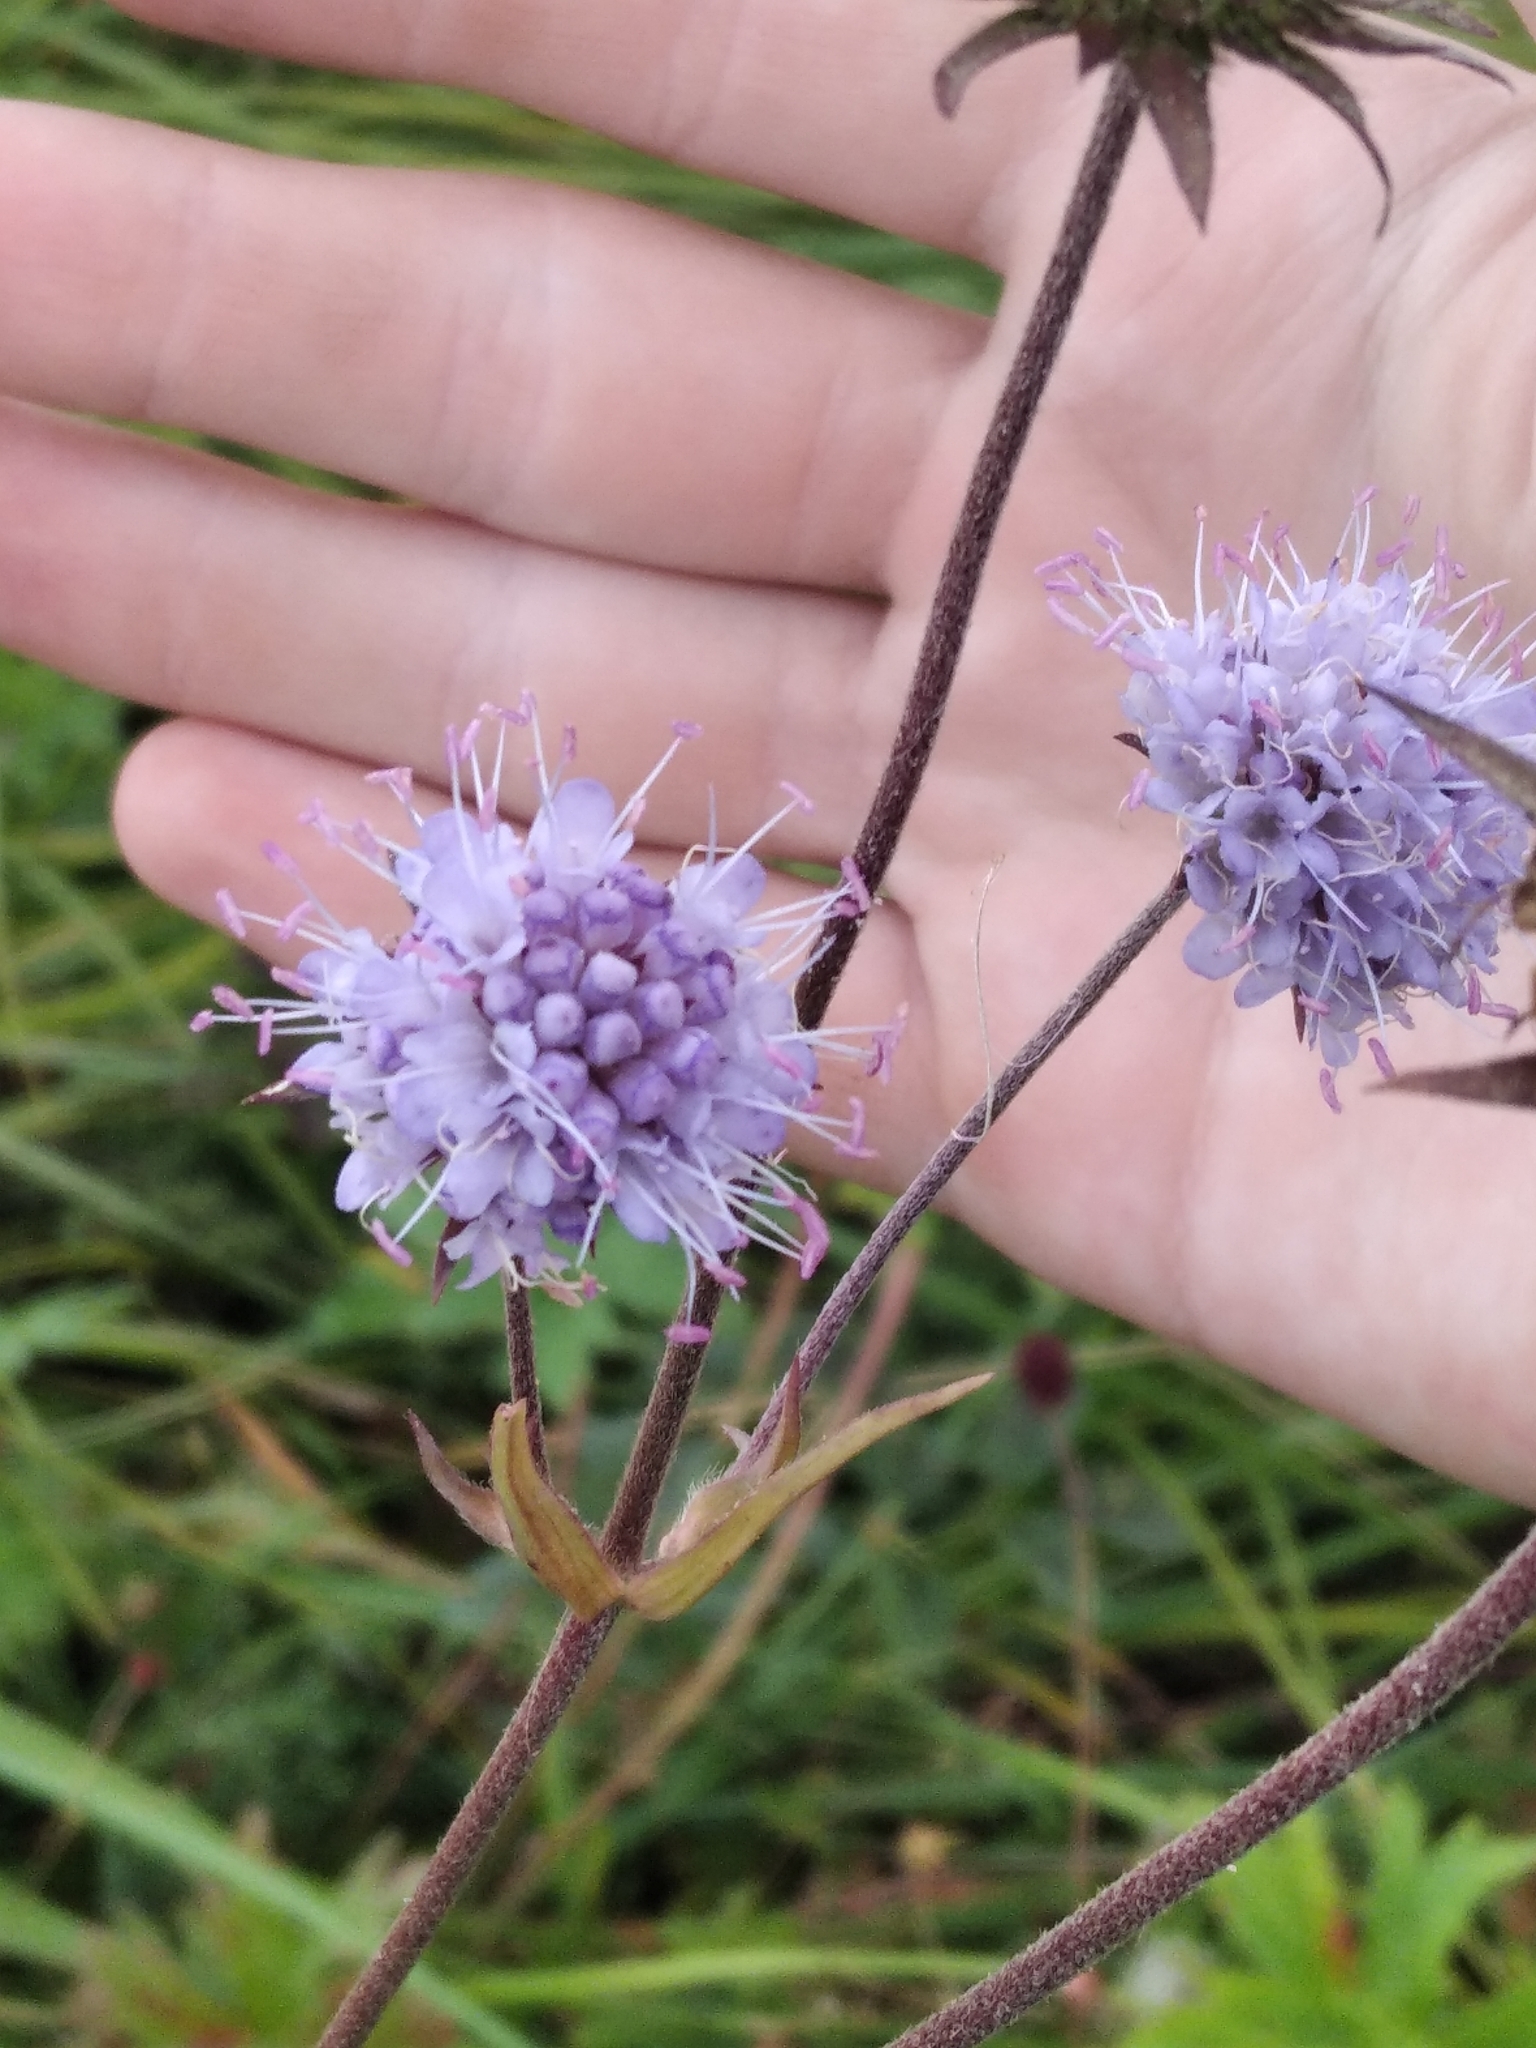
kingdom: Plantae
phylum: Tracheophyta
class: Magnoliopsida
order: Dipsacales
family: Caprifoliaceae
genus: Succisa
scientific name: Succisa pratensis
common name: Devil's-bit
